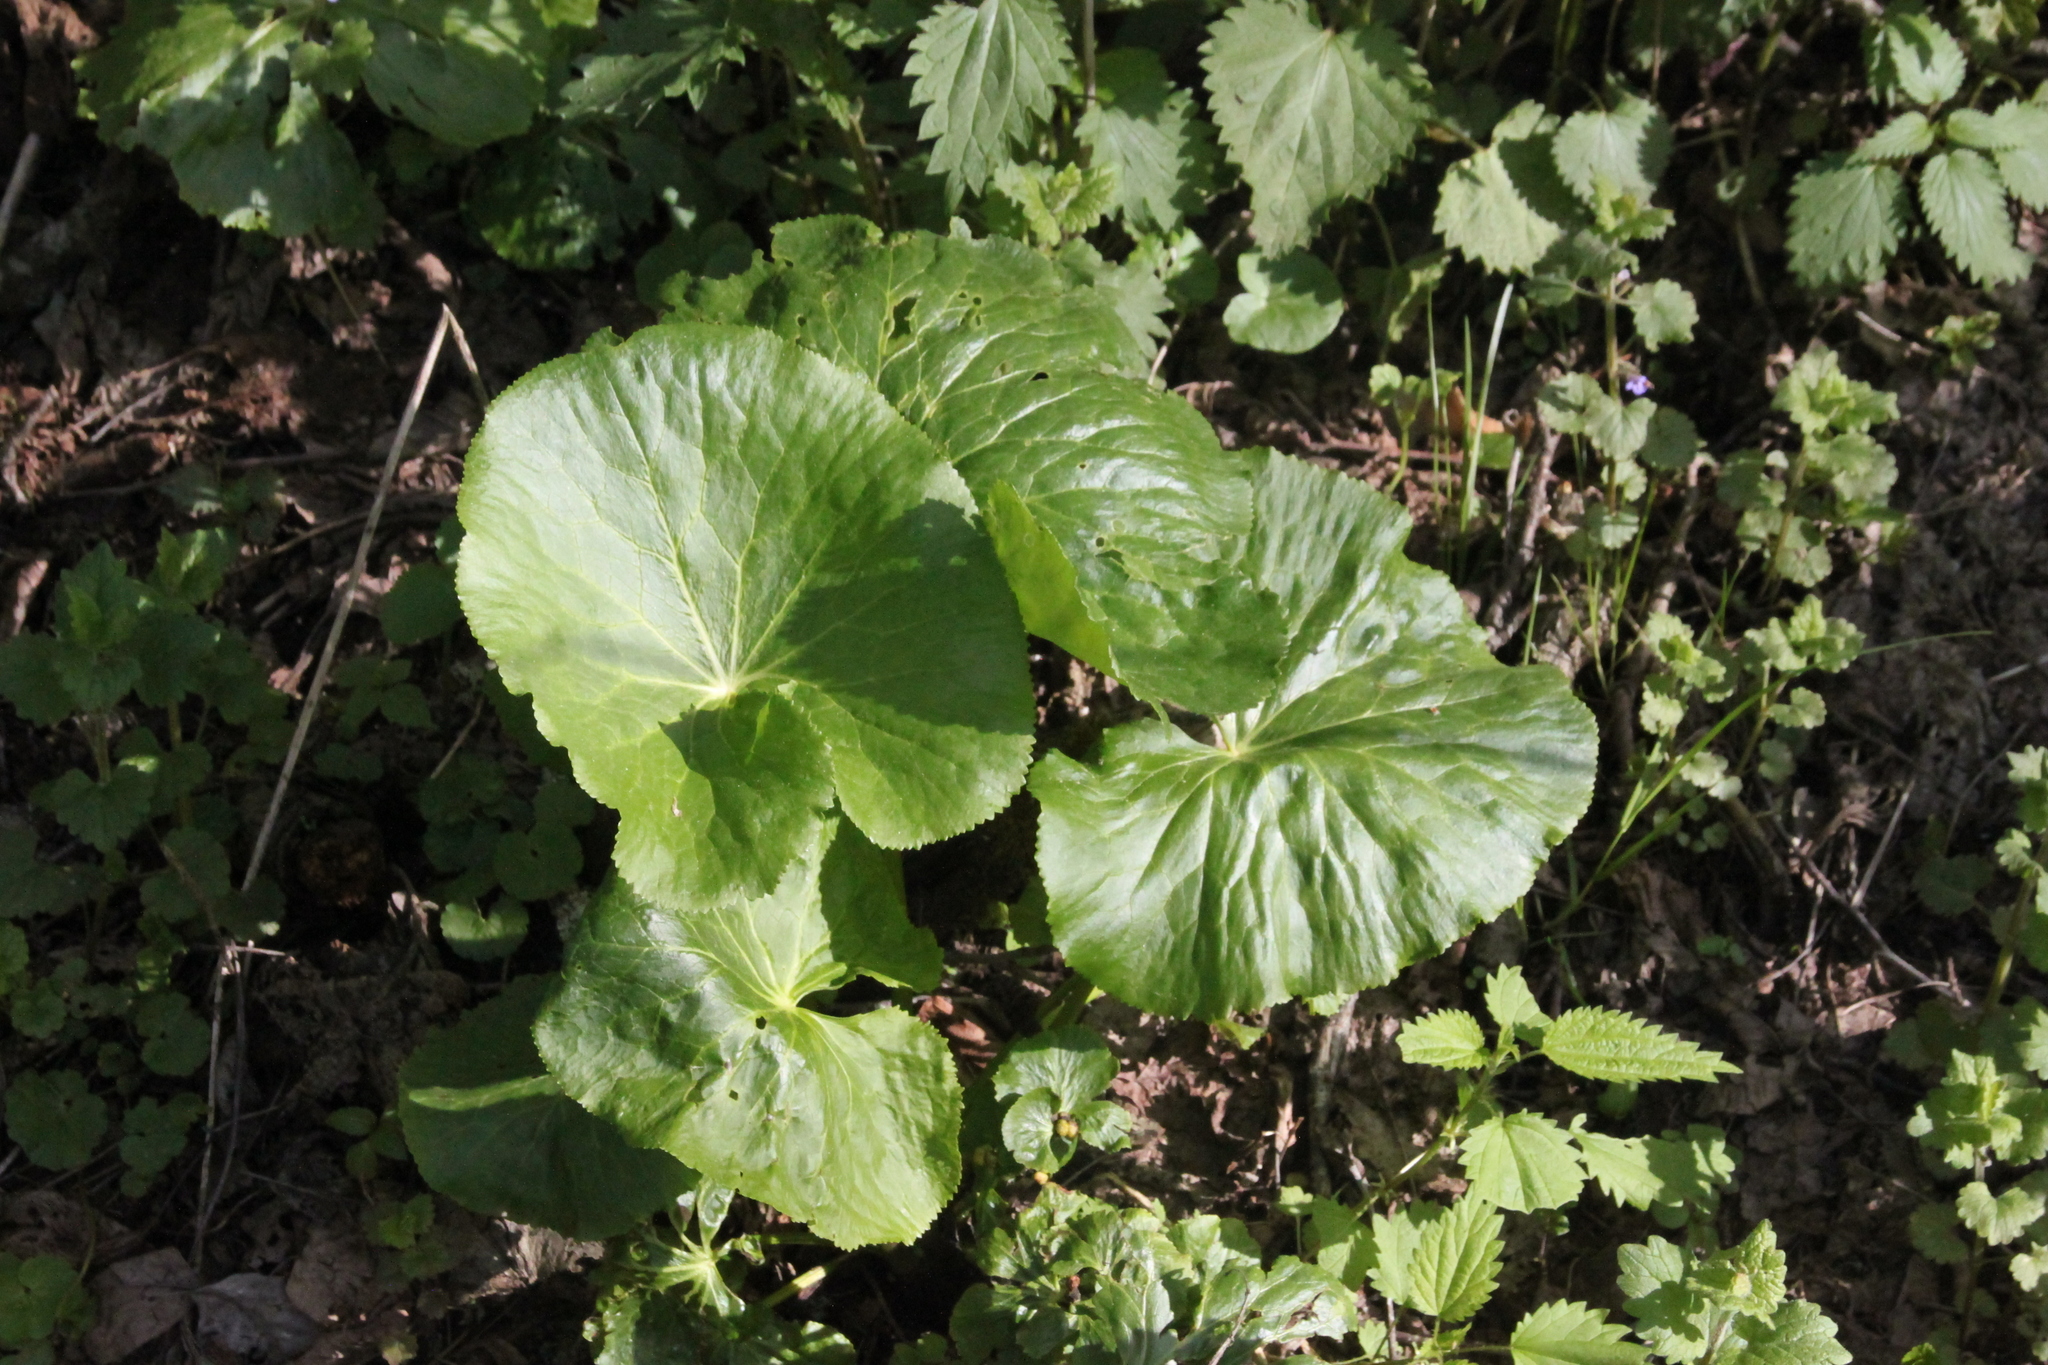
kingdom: Plantae
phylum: Tracheophyta
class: Magnoliopsida
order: Ranunculales
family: Ranunculaceae
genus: Caltha
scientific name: Caltha palustris
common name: Marsh marigold
